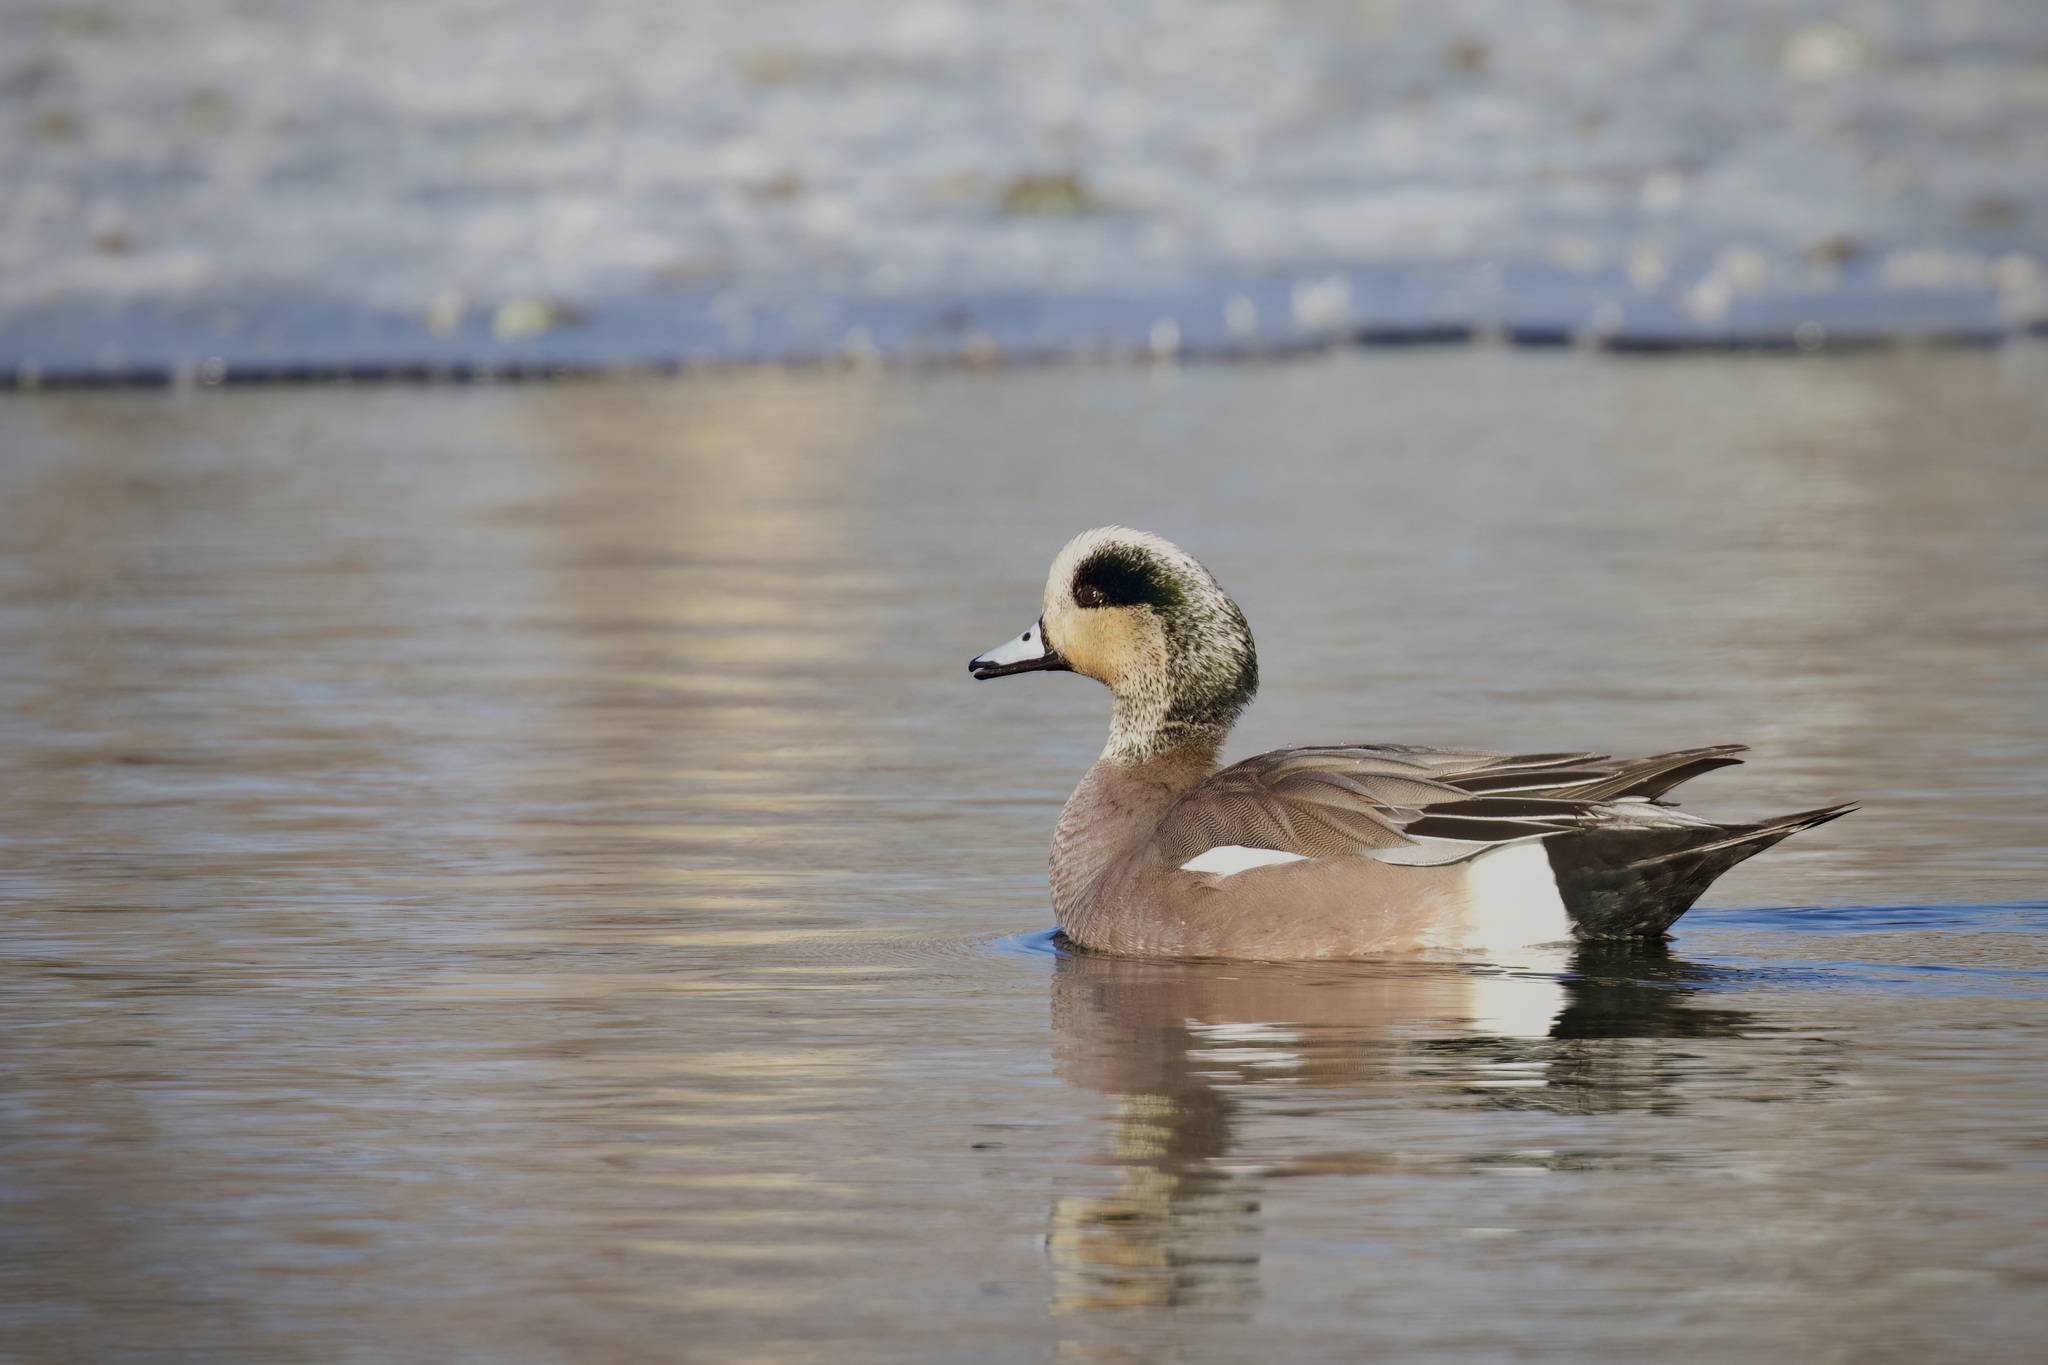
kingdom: Animalia
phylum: Chordata
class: Aves
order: Anseriformes
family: Anatidae
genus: Mareca
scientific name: Mareca americana
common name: American wigeon
